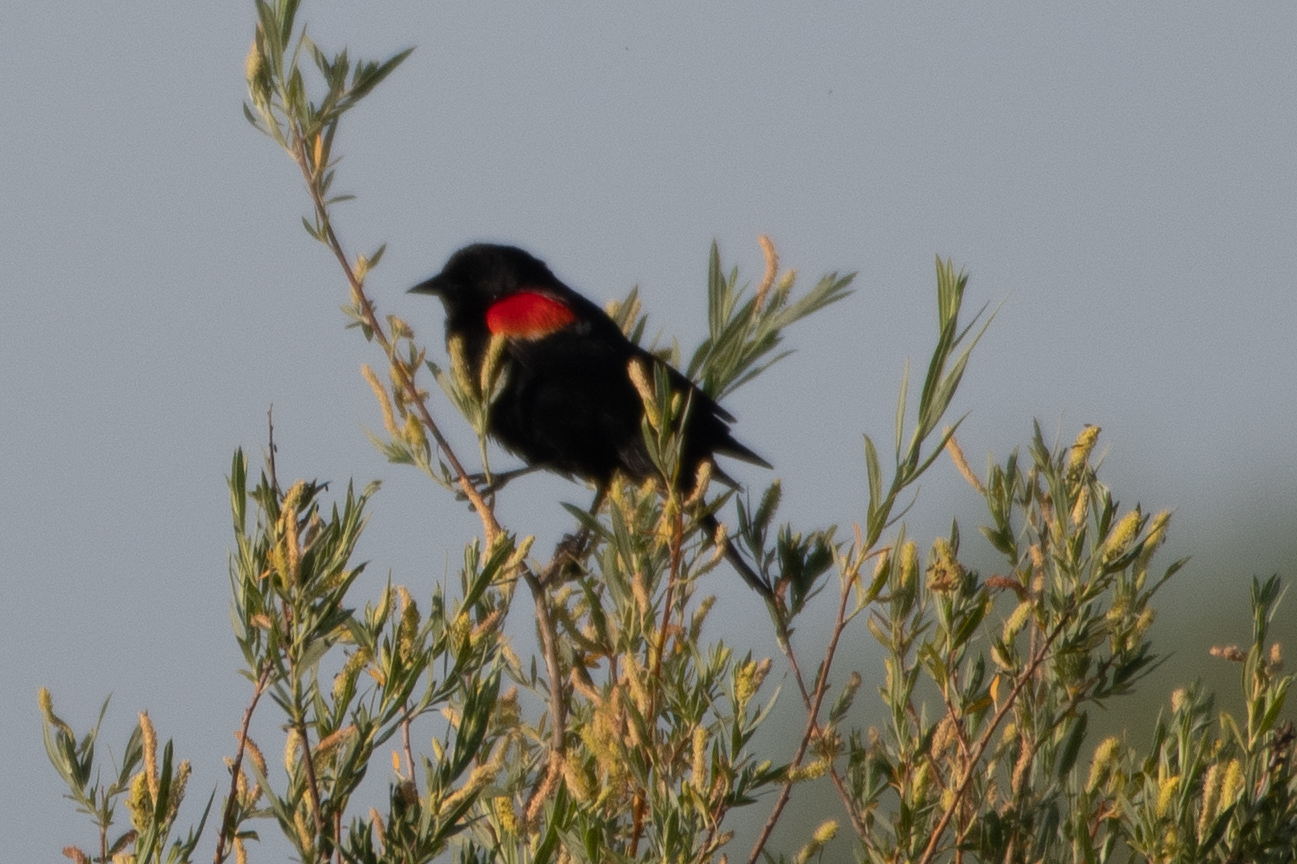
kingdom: Animalia
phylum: Chordata
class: Aves
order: Passeriformes
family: Icteridae
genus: Agelaius
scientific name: Agelaius phoeniceus
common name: Red-winged blackbird
